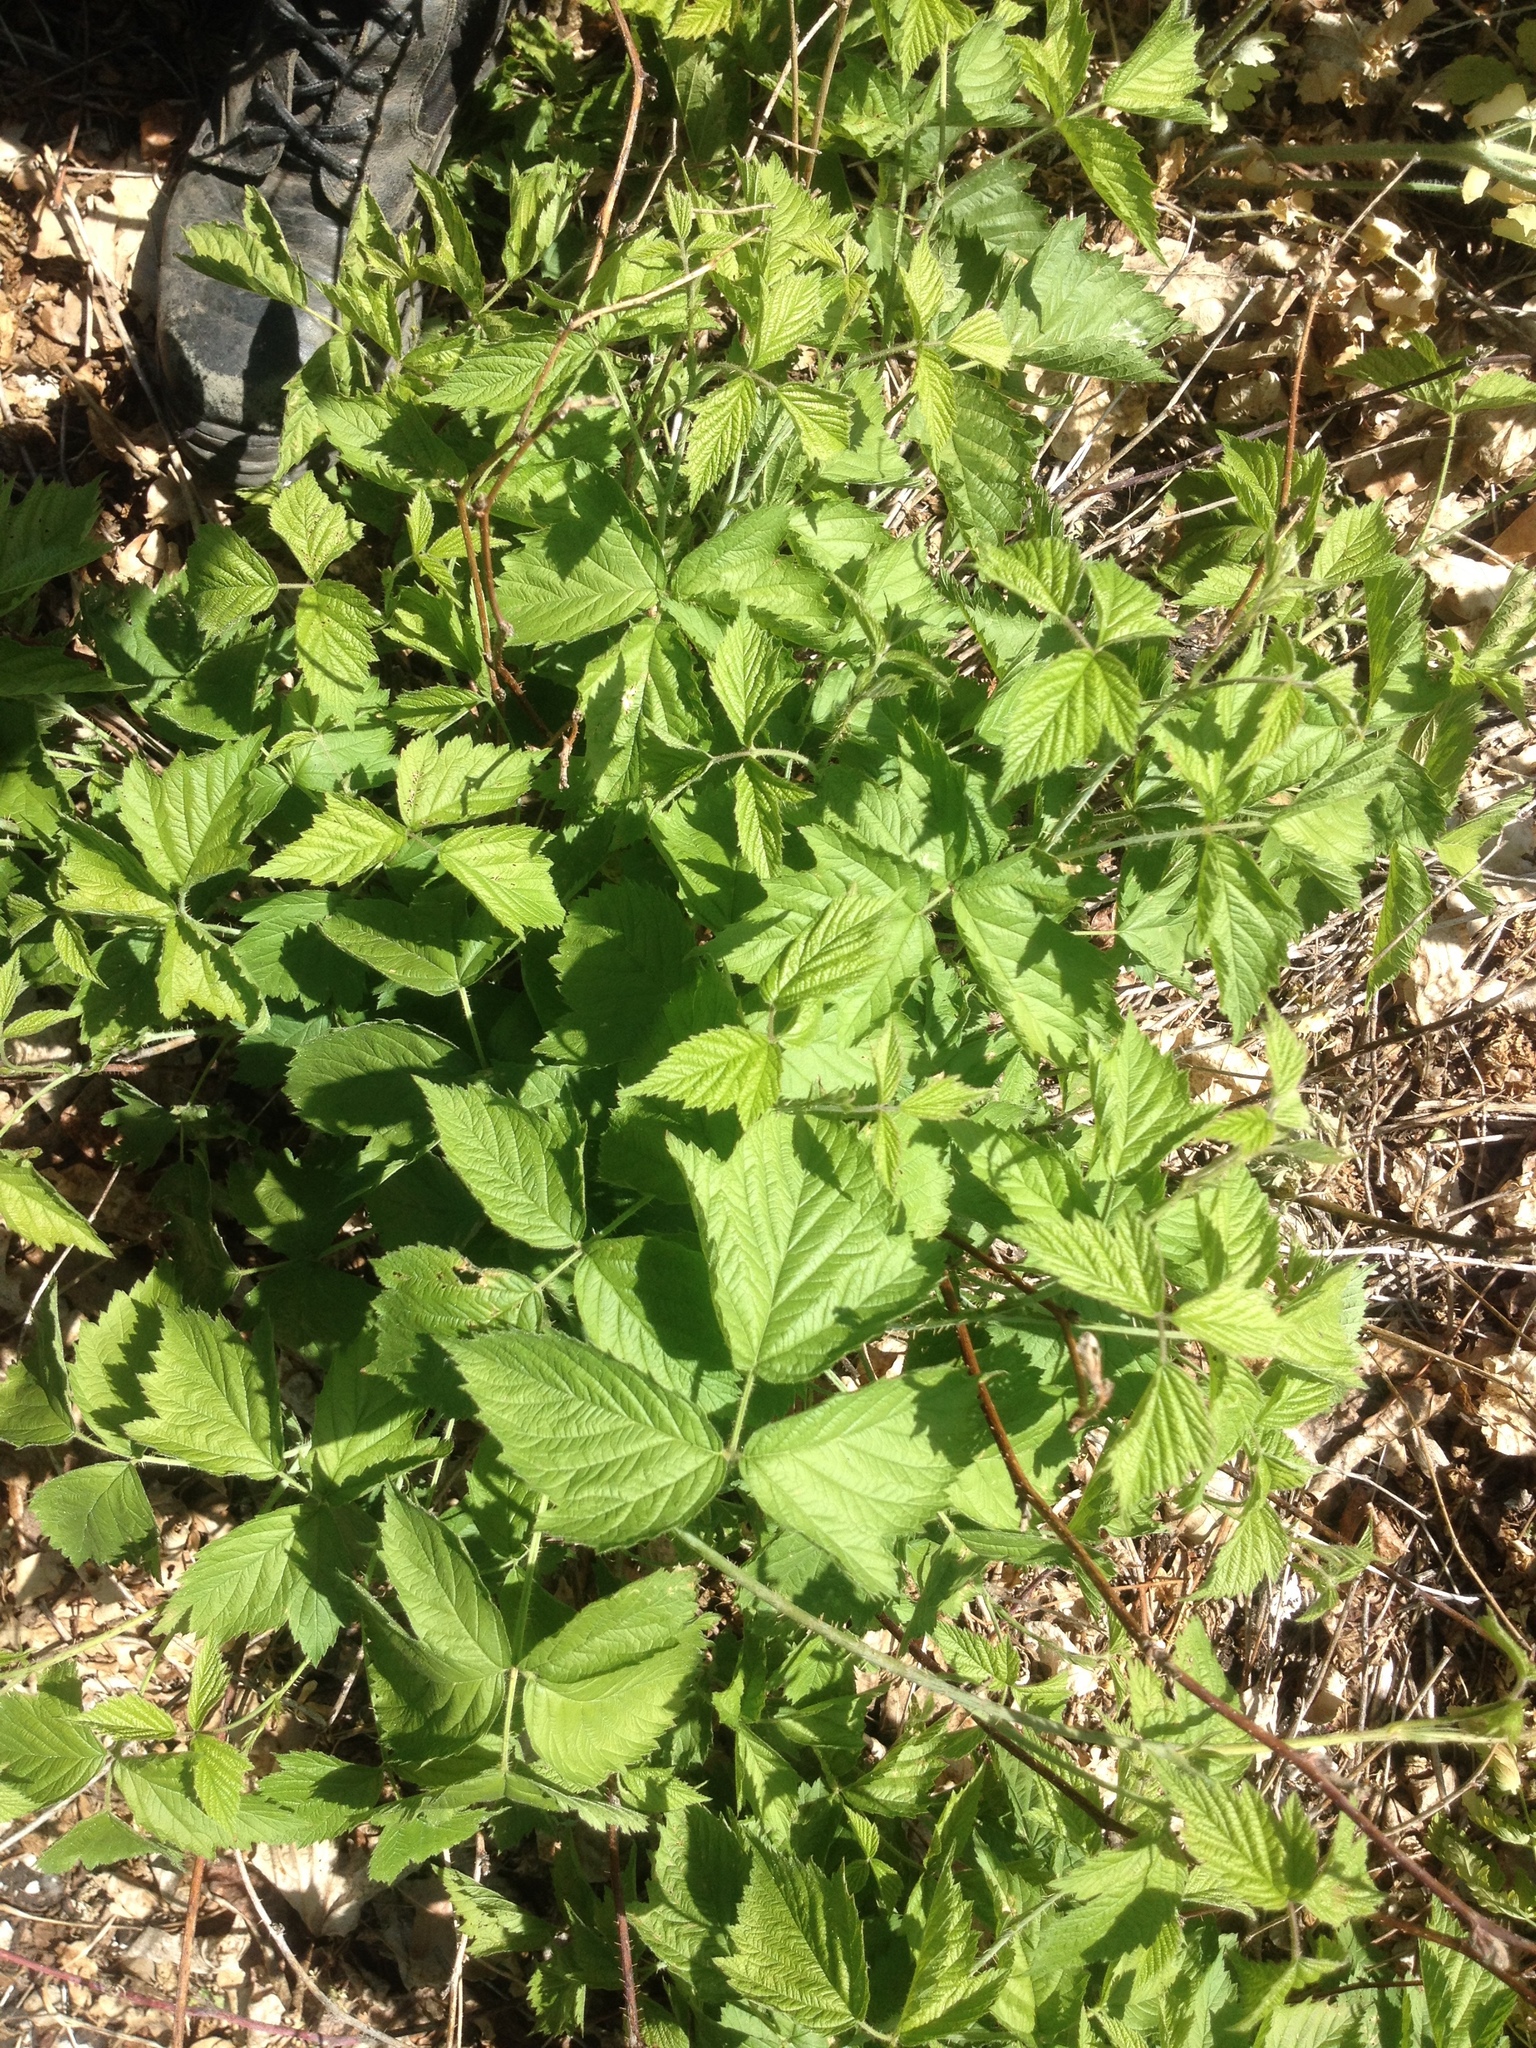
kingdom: Plantae
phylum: Tracheophyta
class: Magnoliopsida
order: Rosales
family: Rosaceae
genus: Rubus
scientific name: Rubus caesius
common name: Dewberry
